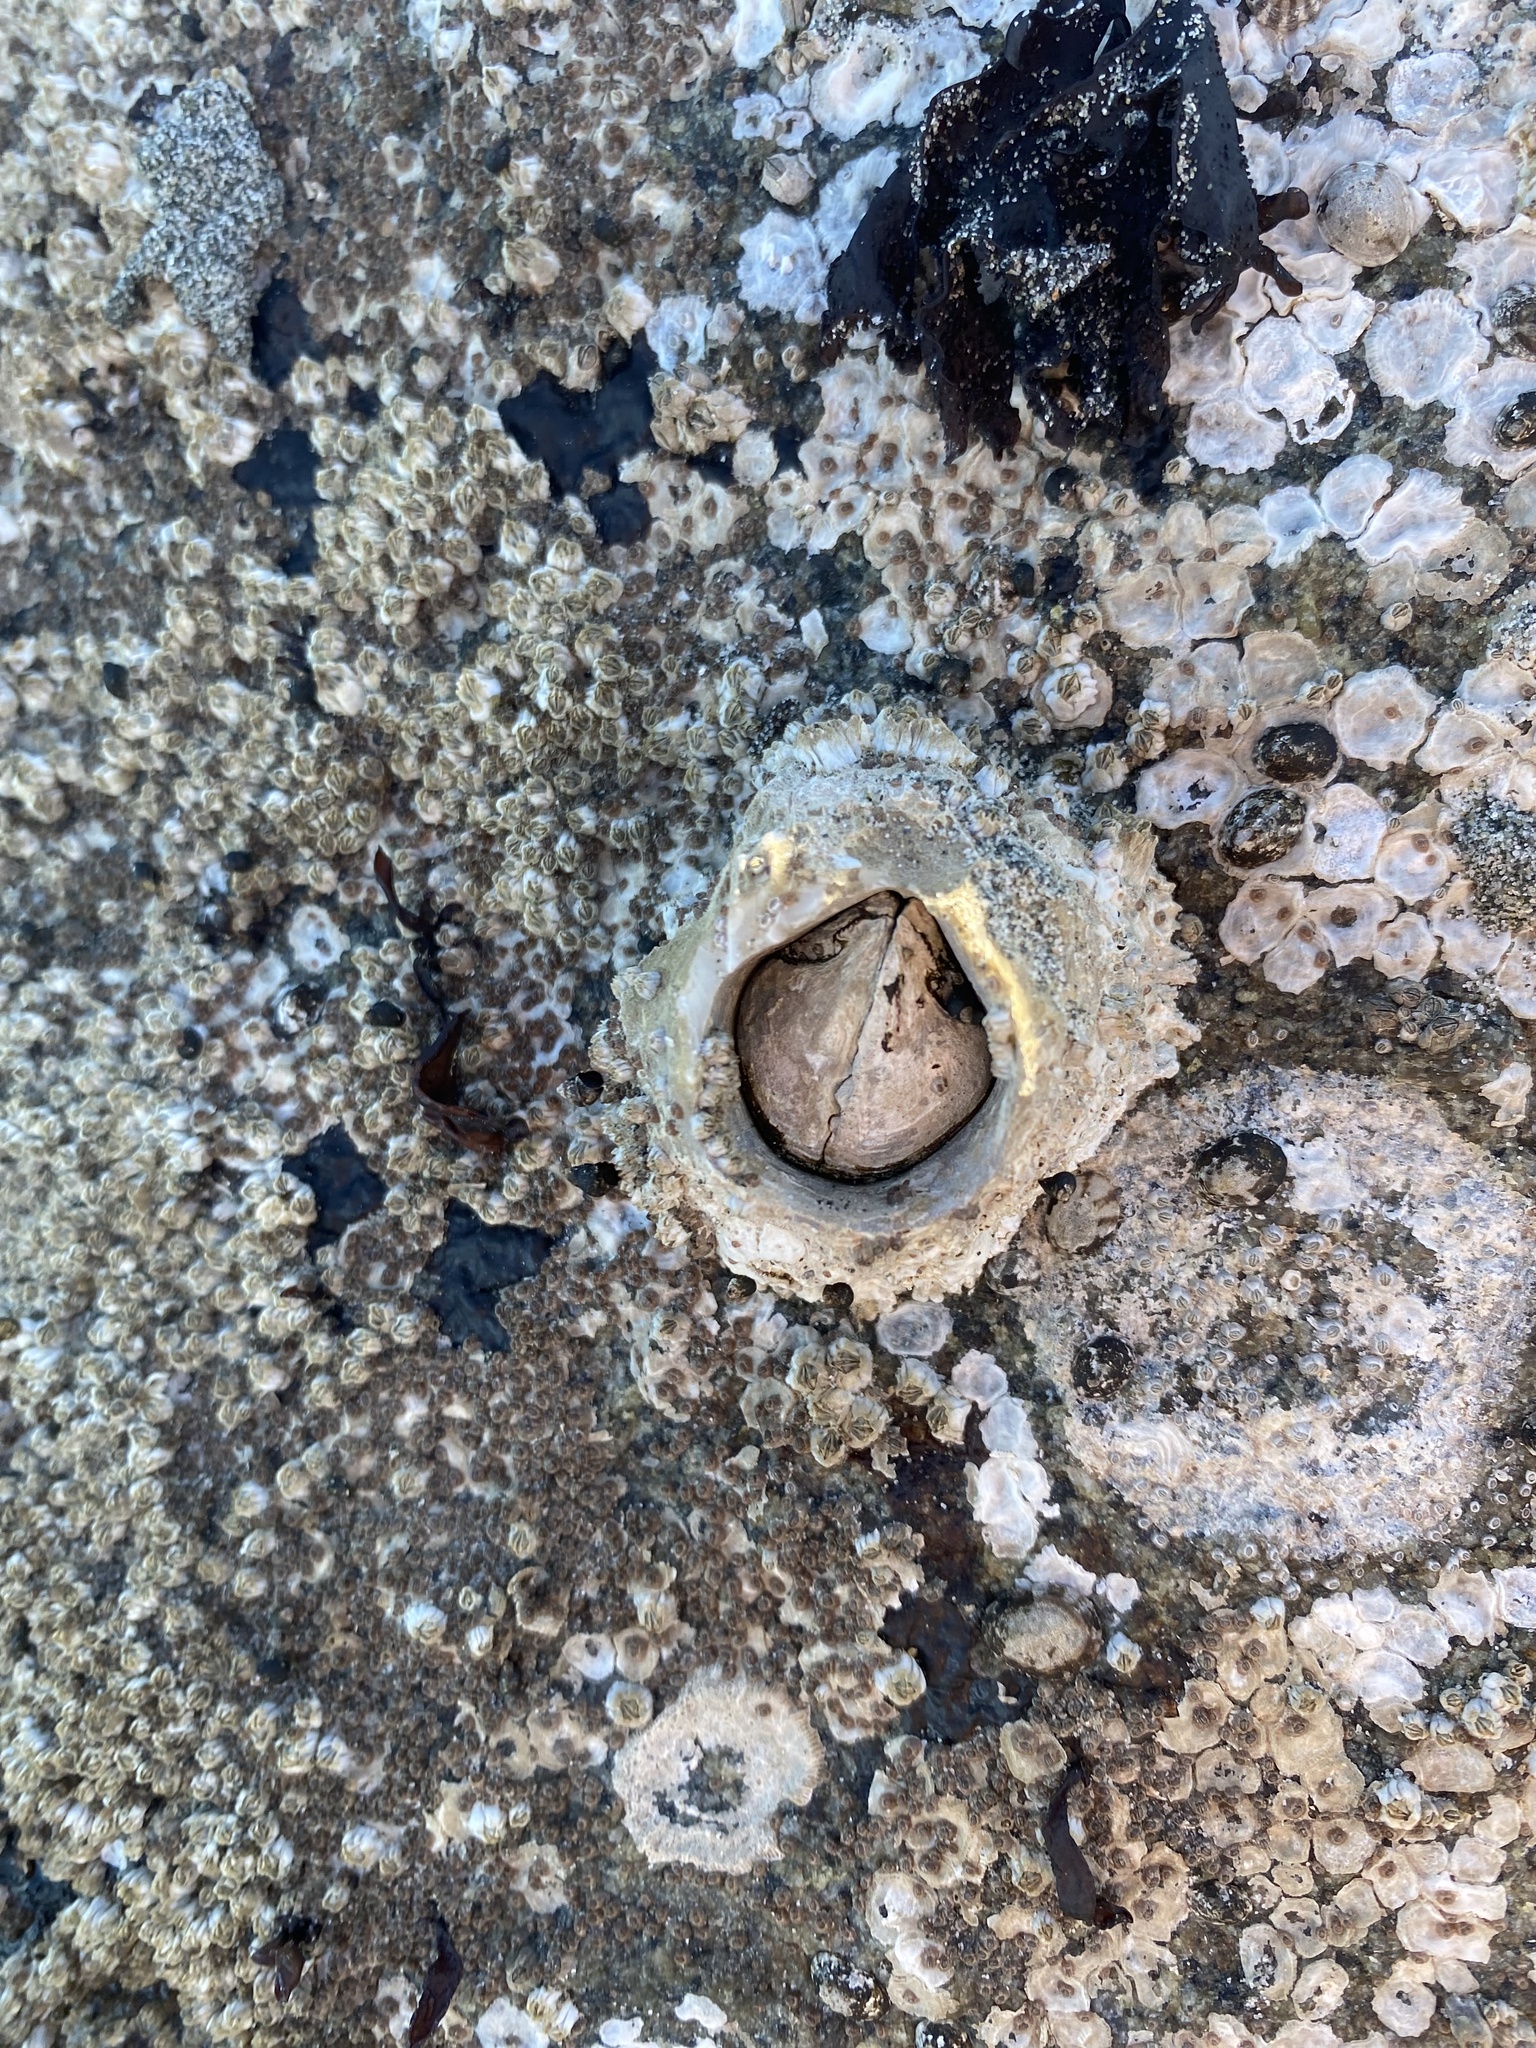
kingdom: Animalia
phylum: Arthropoda
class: Maxillopoda
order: Sessilia
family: Archaeobalanidae
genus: Semibalanus
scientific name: Semibalanus cariosus
